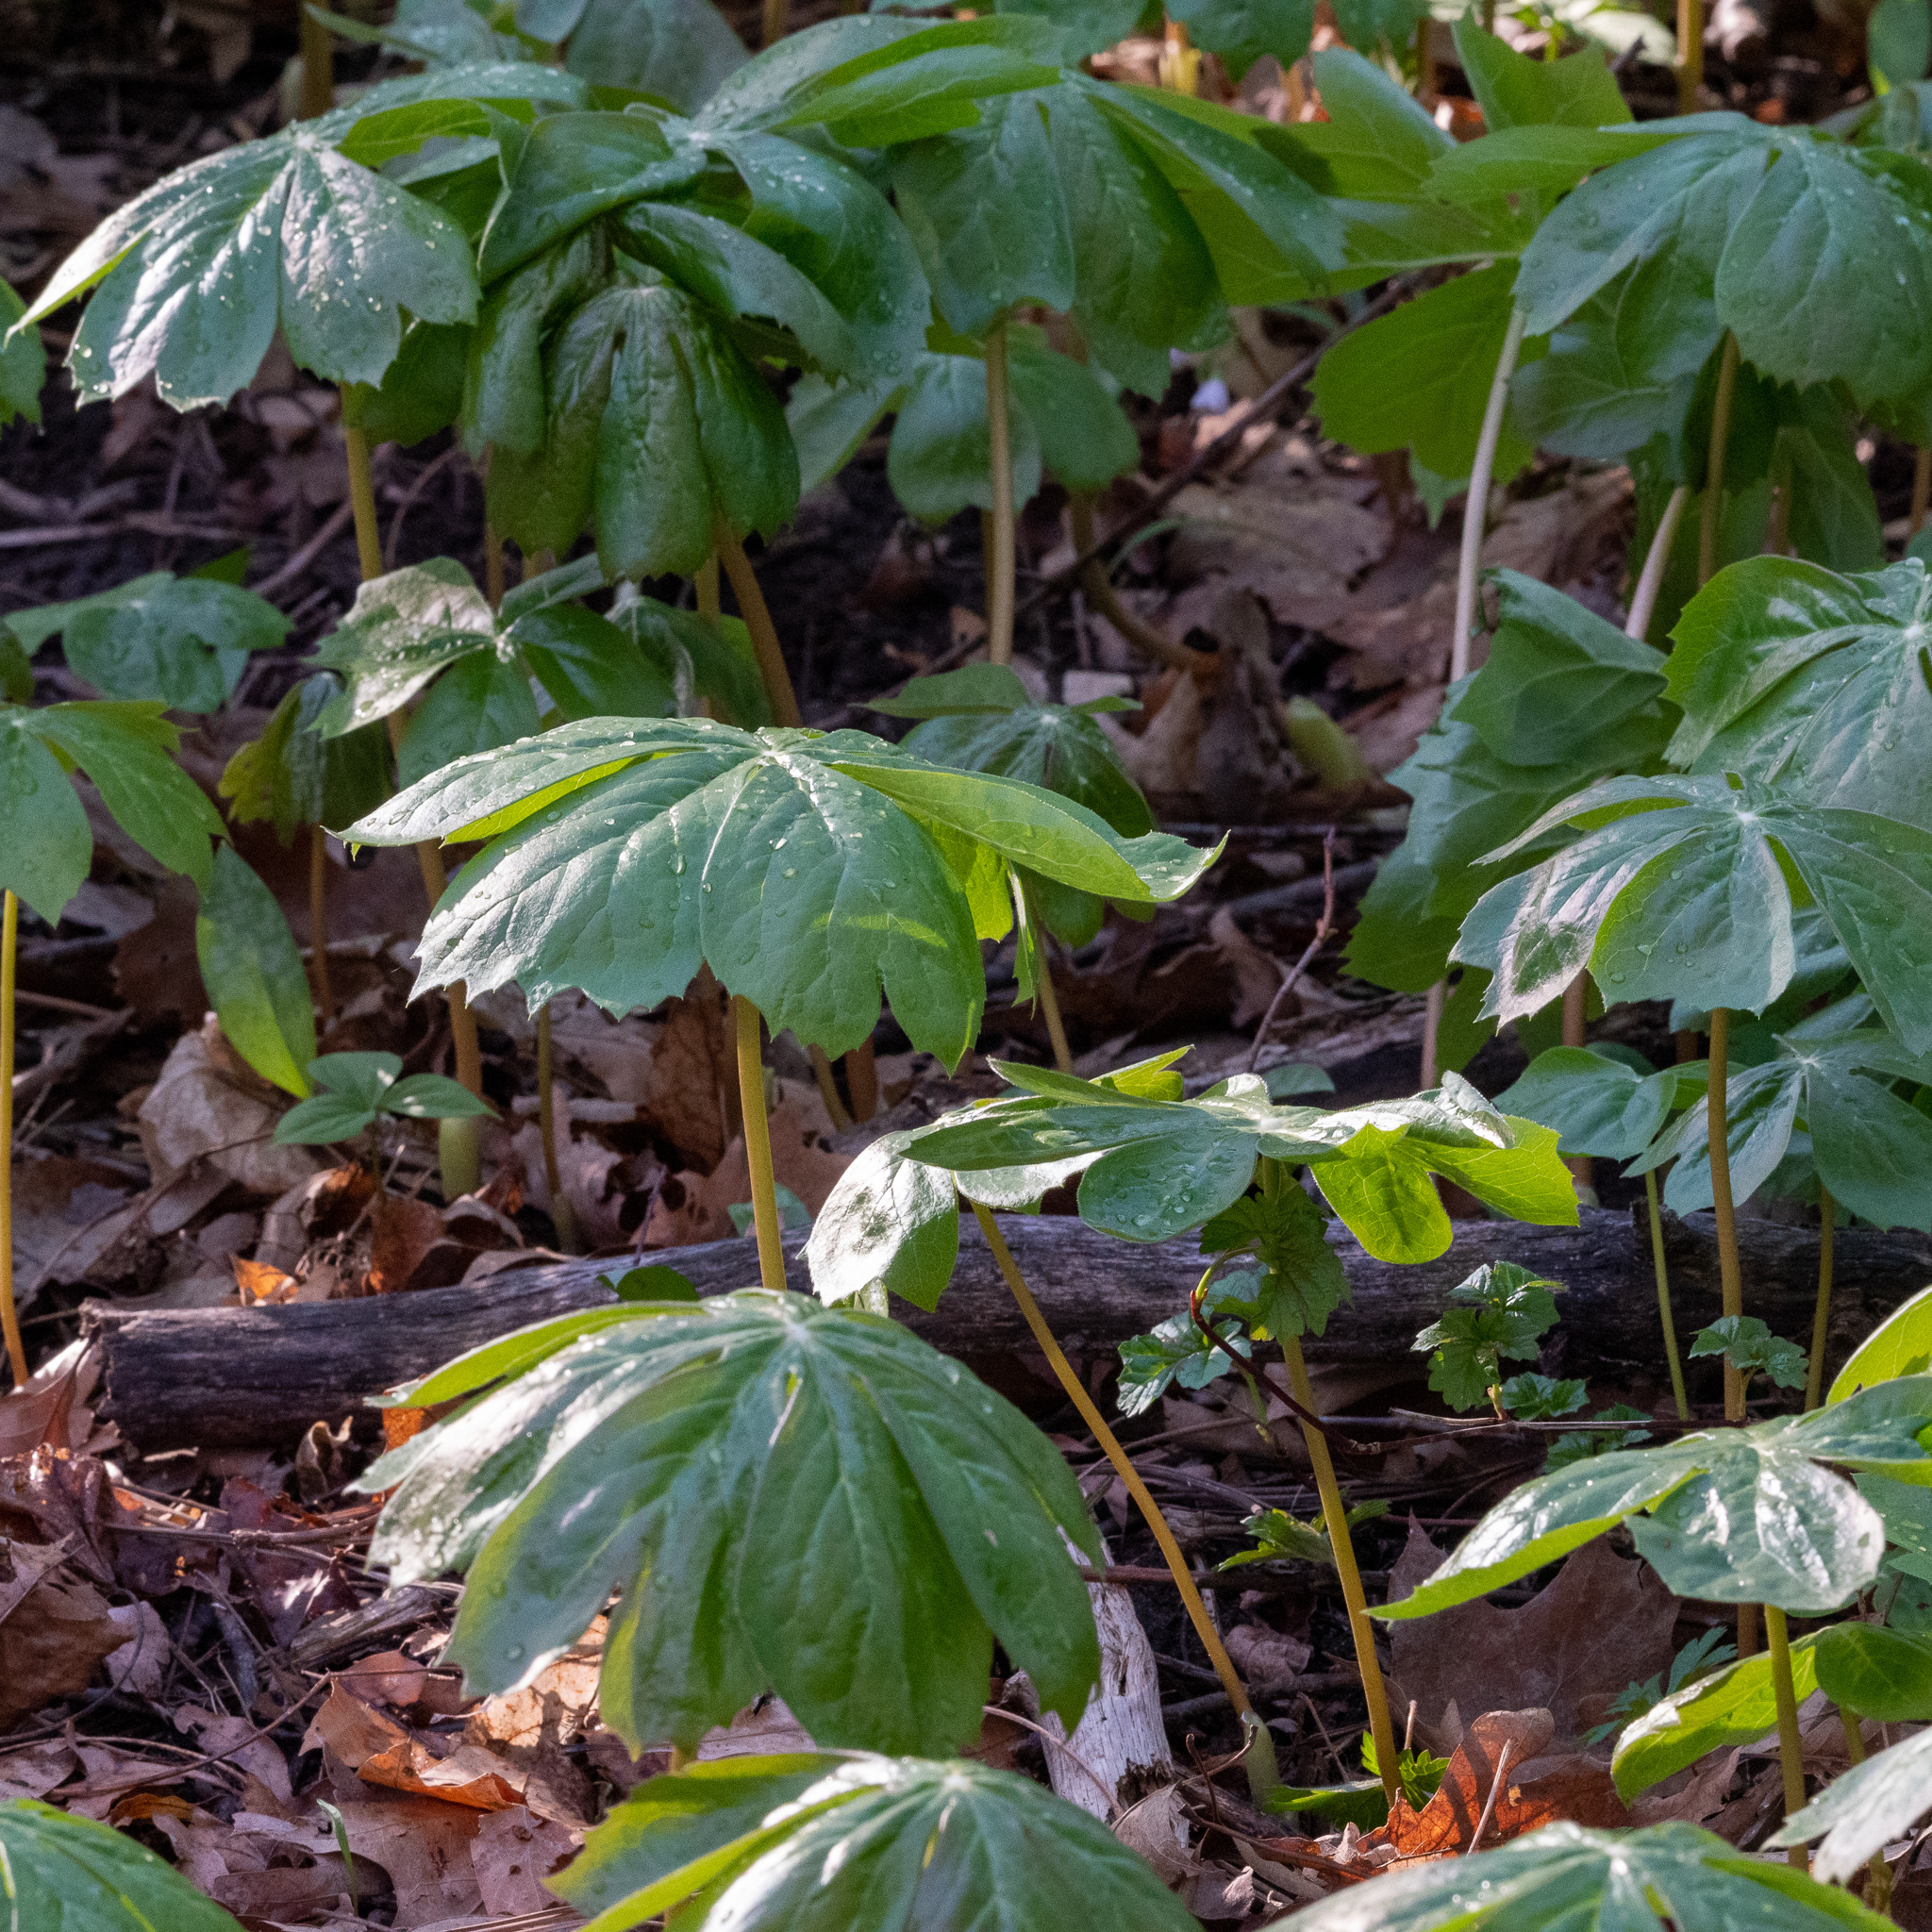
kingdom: Plantae
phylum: Tracheophyta
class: Magnoliopsida
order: Ranunculales
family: Berberidaceae
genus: Podophyllum
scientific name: Podophyllum peltatum
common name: Wild mandrake
